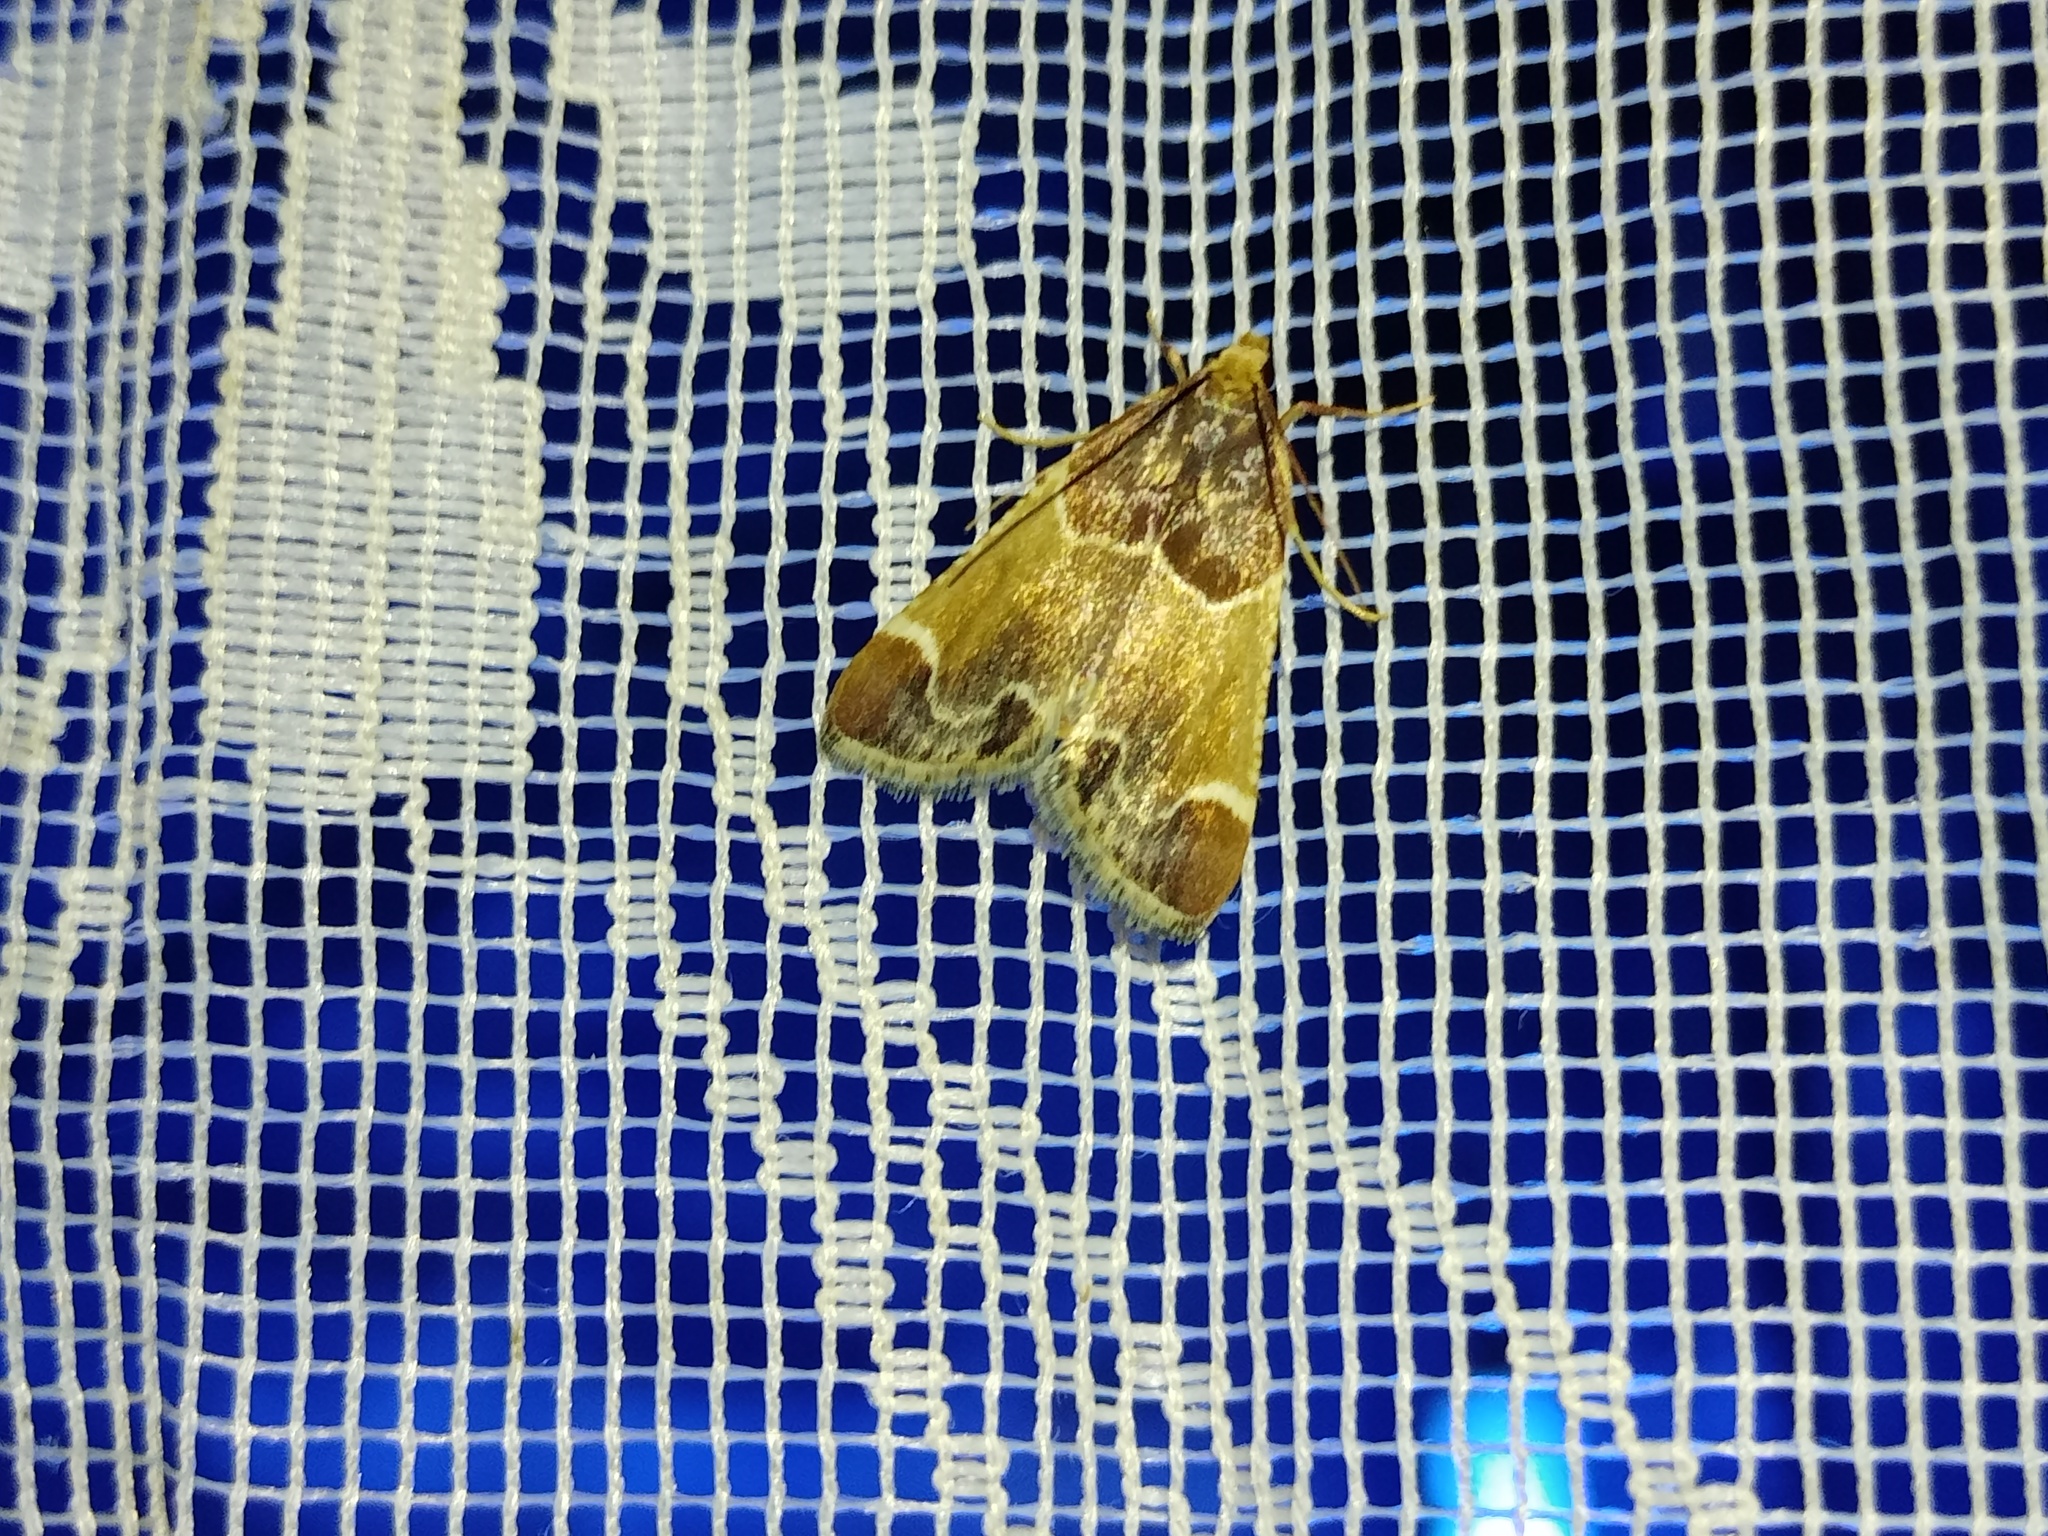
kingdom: Animalia
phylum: Arthropoda
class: Insecta
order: Lepidoptera
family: Pyralidae
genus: Pyralis
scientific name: Pyralis farinalis
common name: Meal moth
